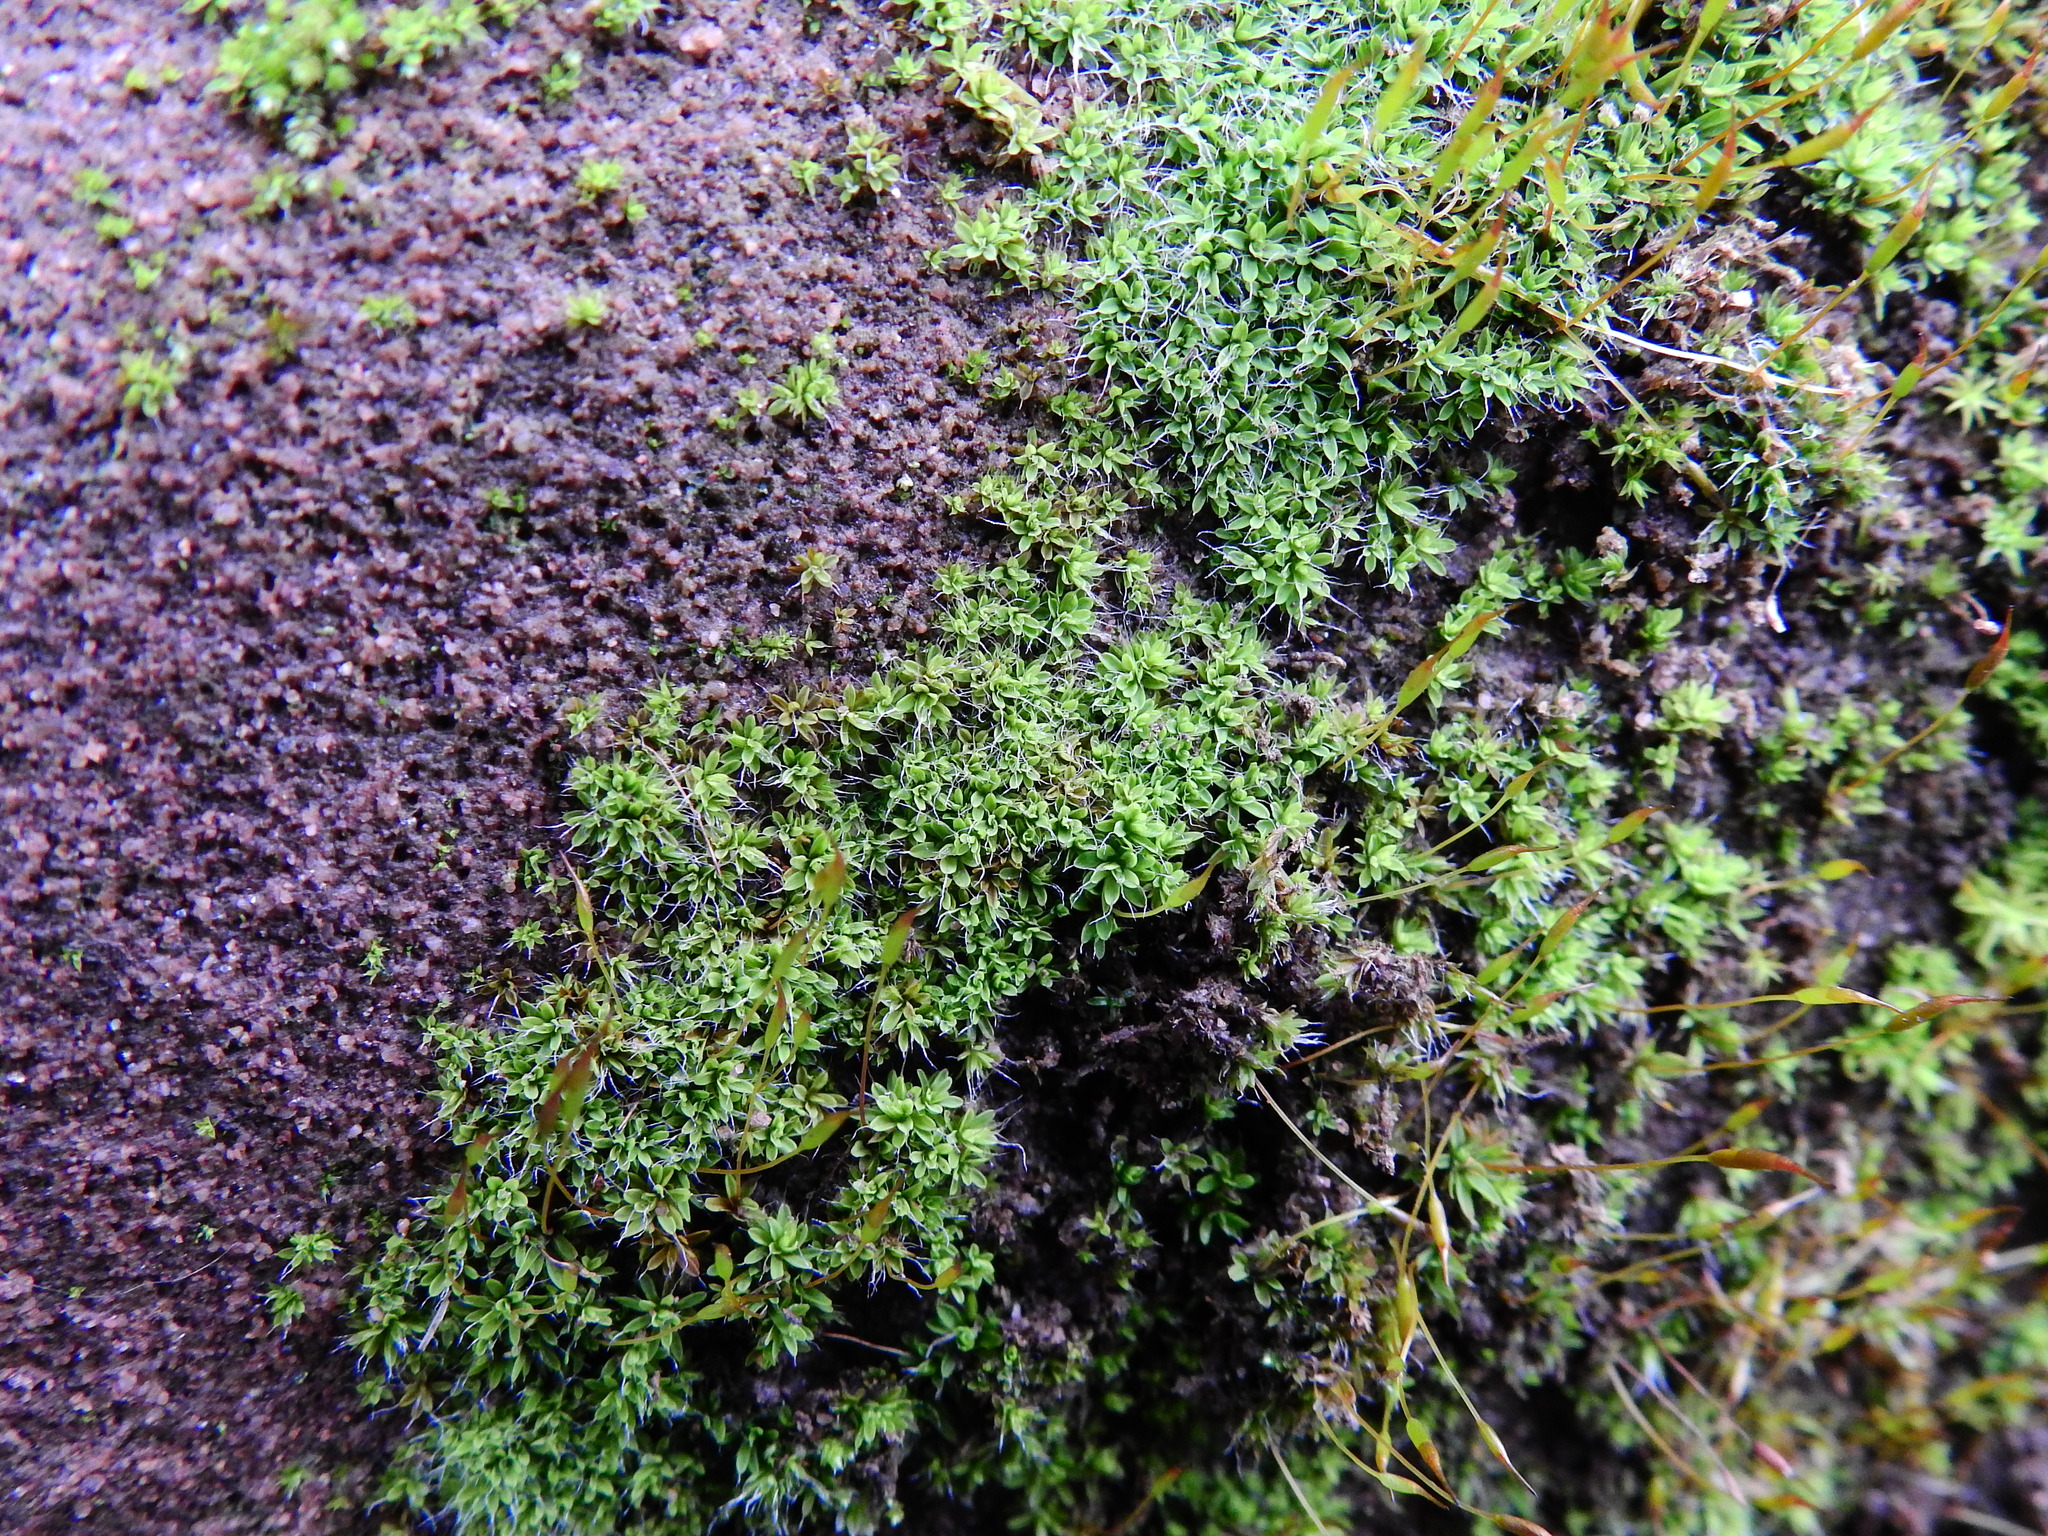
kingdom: Plantae
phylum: Bryophyta
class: Bryopsida
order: Pottiales
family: Pottiaceae
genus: Tortula
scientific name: Tortula muralis
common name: Wall screw-moss
